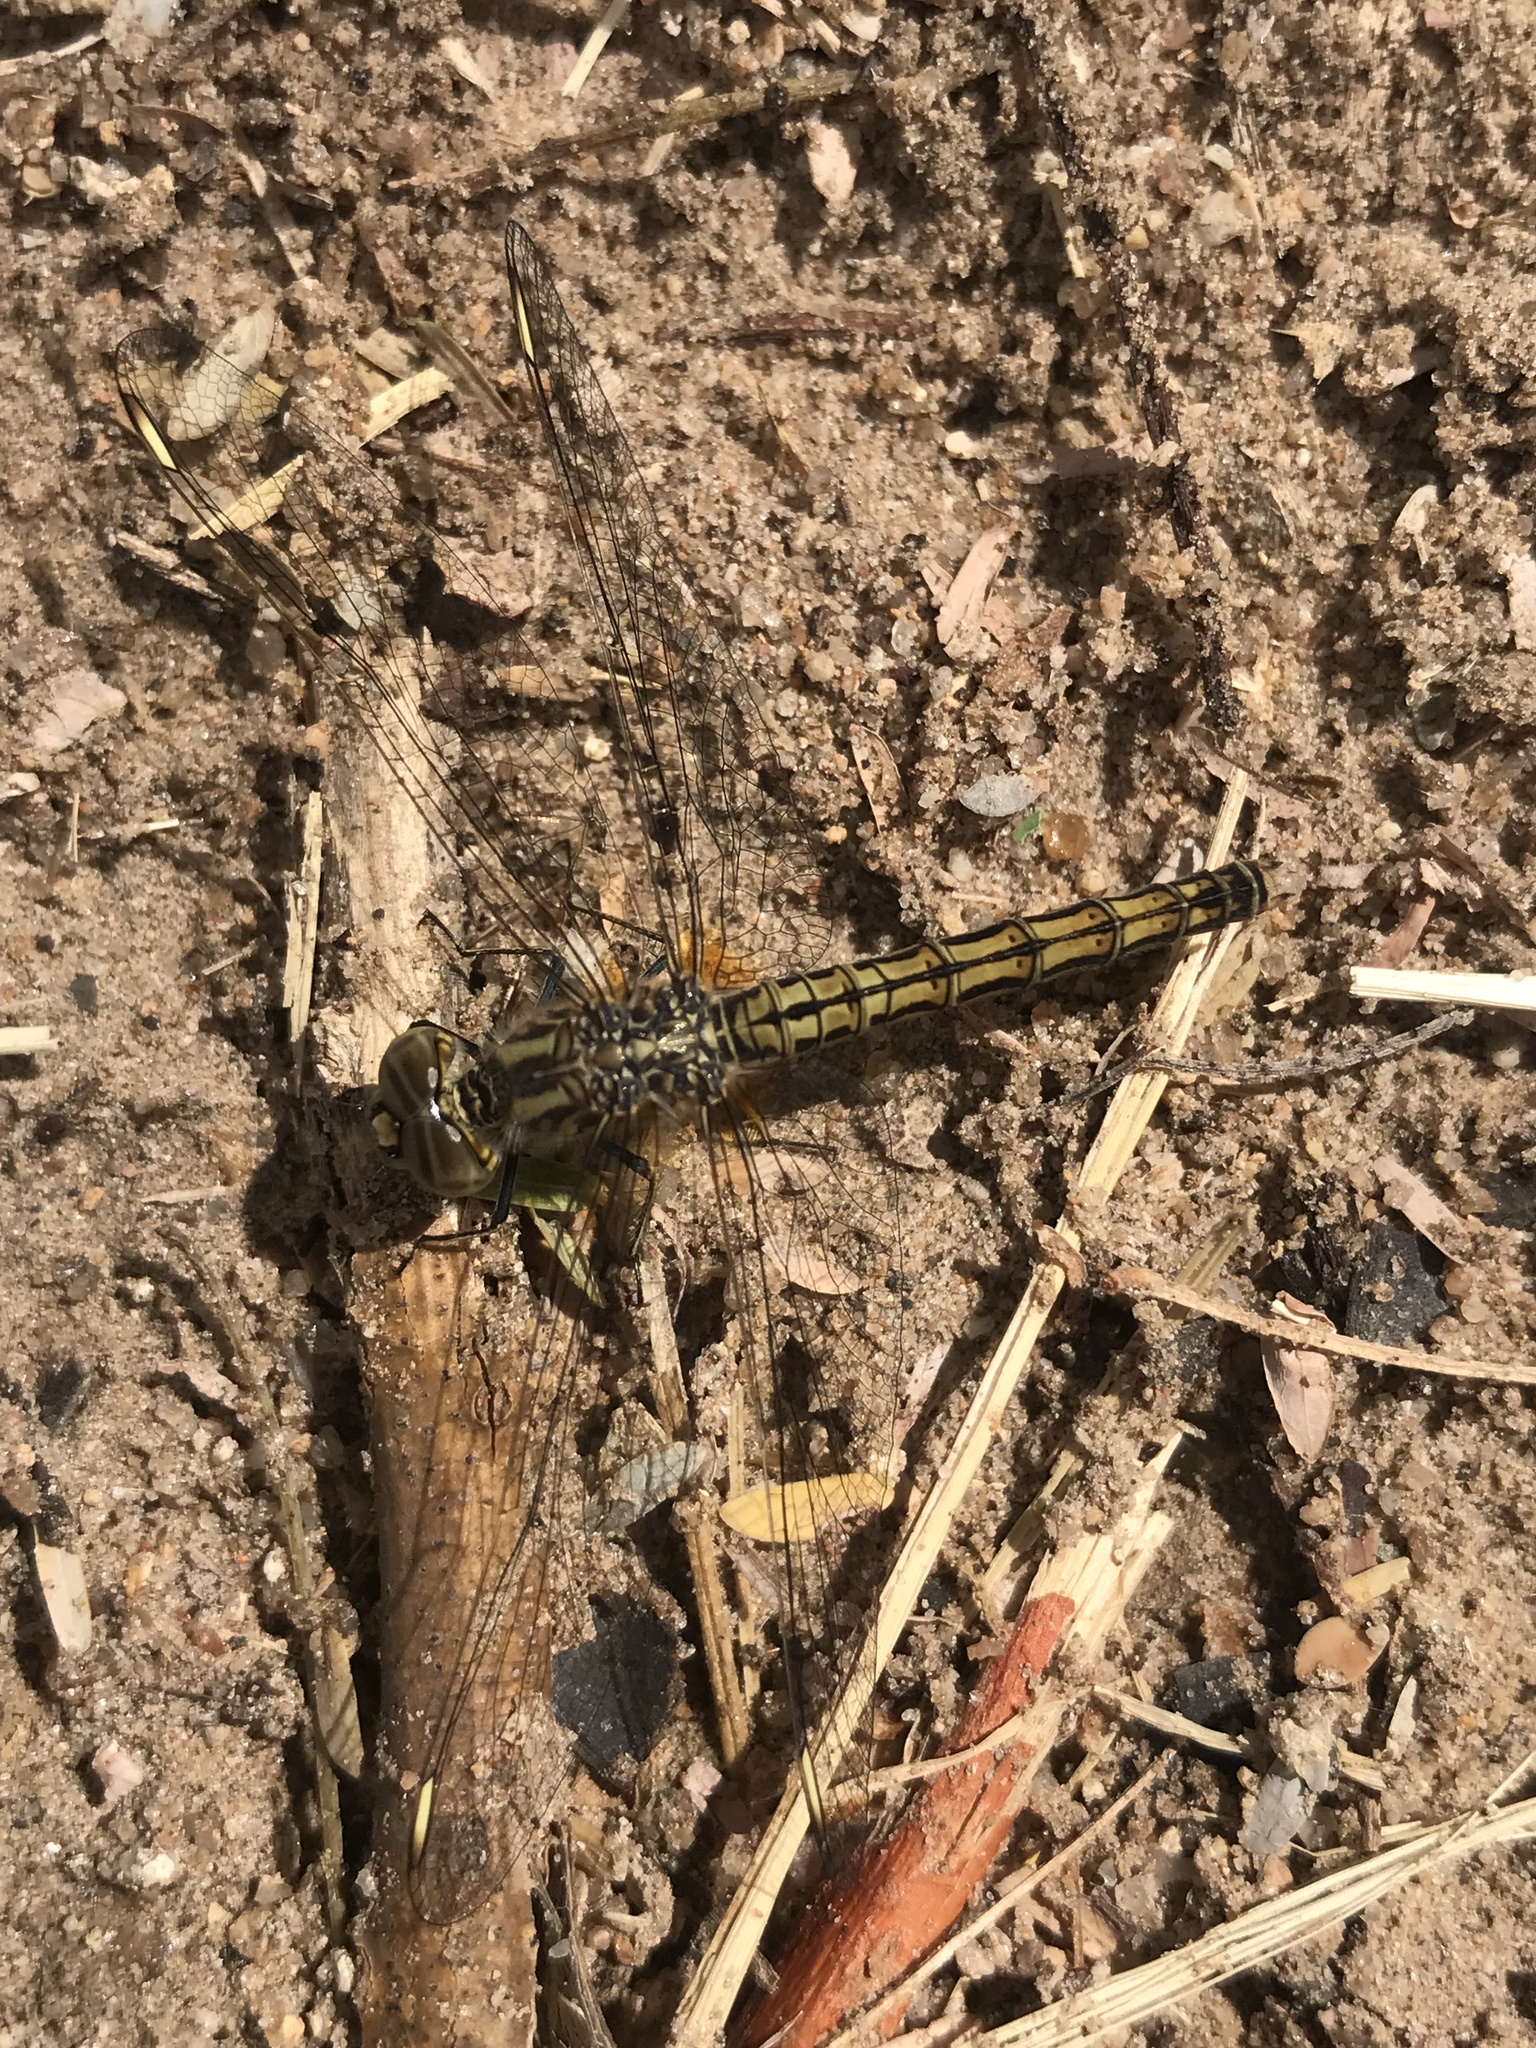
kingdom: Animalia
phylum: Arthropoda
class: Insecta
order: Odonata
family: Libellulidae
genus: Brachythemis
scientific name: Brachythemis leucosticta
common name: Banded groundling
